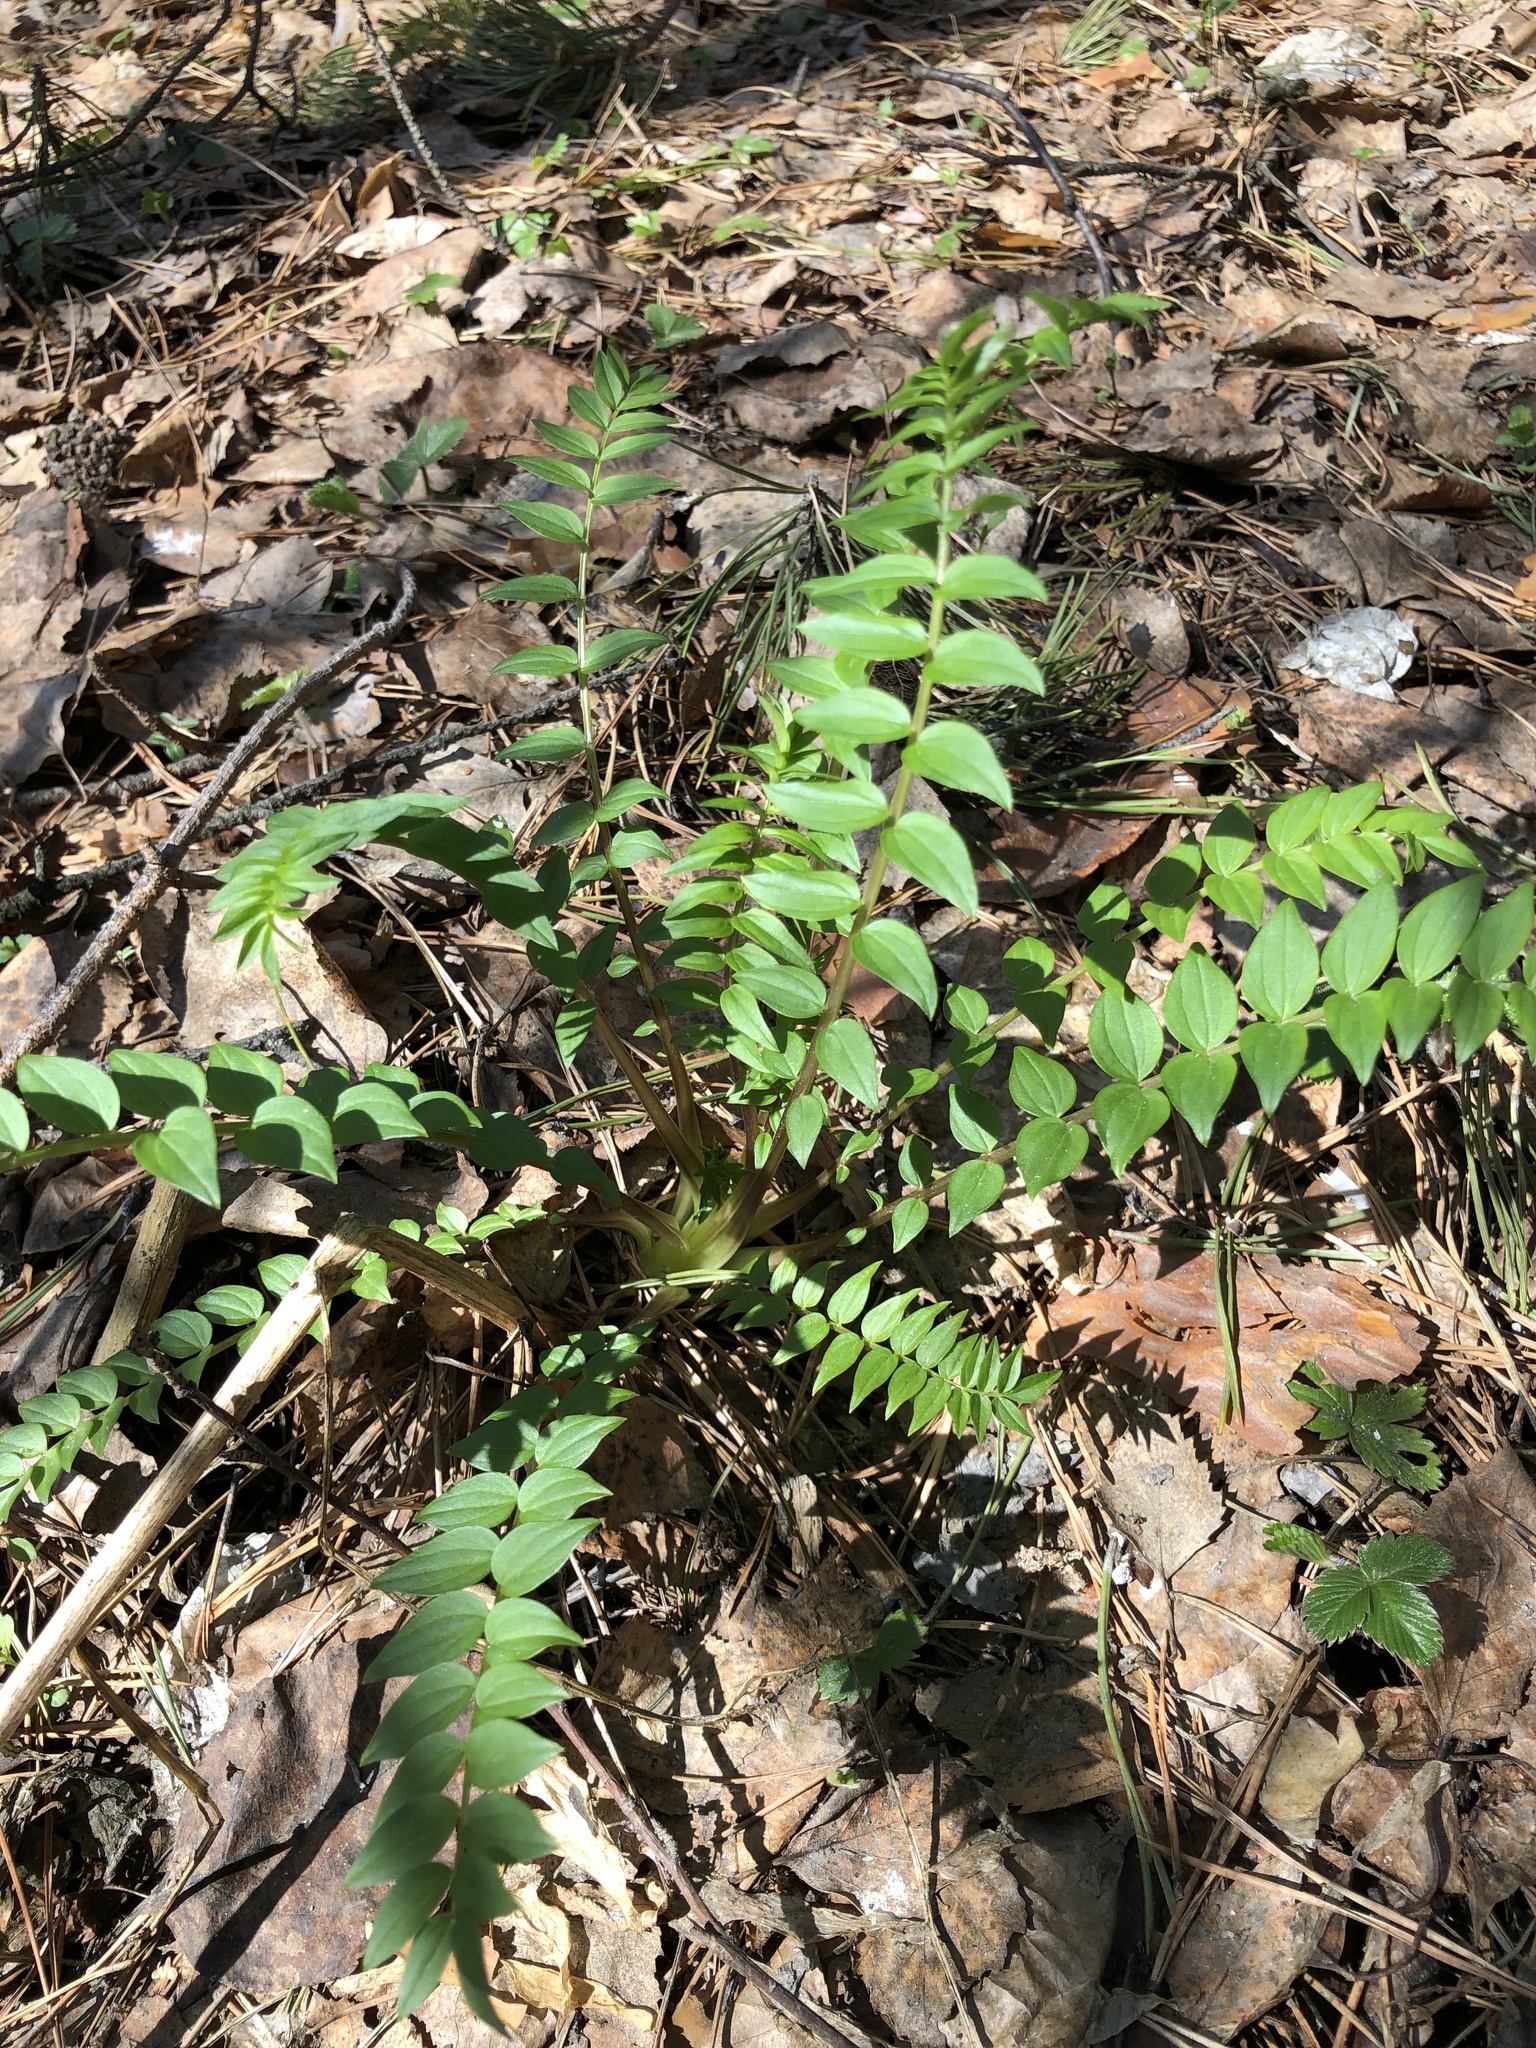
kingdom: Plantae
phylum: Tracheophyta
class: Magnoliopsida
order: Ericales
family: Polemoniaceae
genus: Polemonium
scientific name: Polemonium caeruleum
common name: Jacob's-ladder
